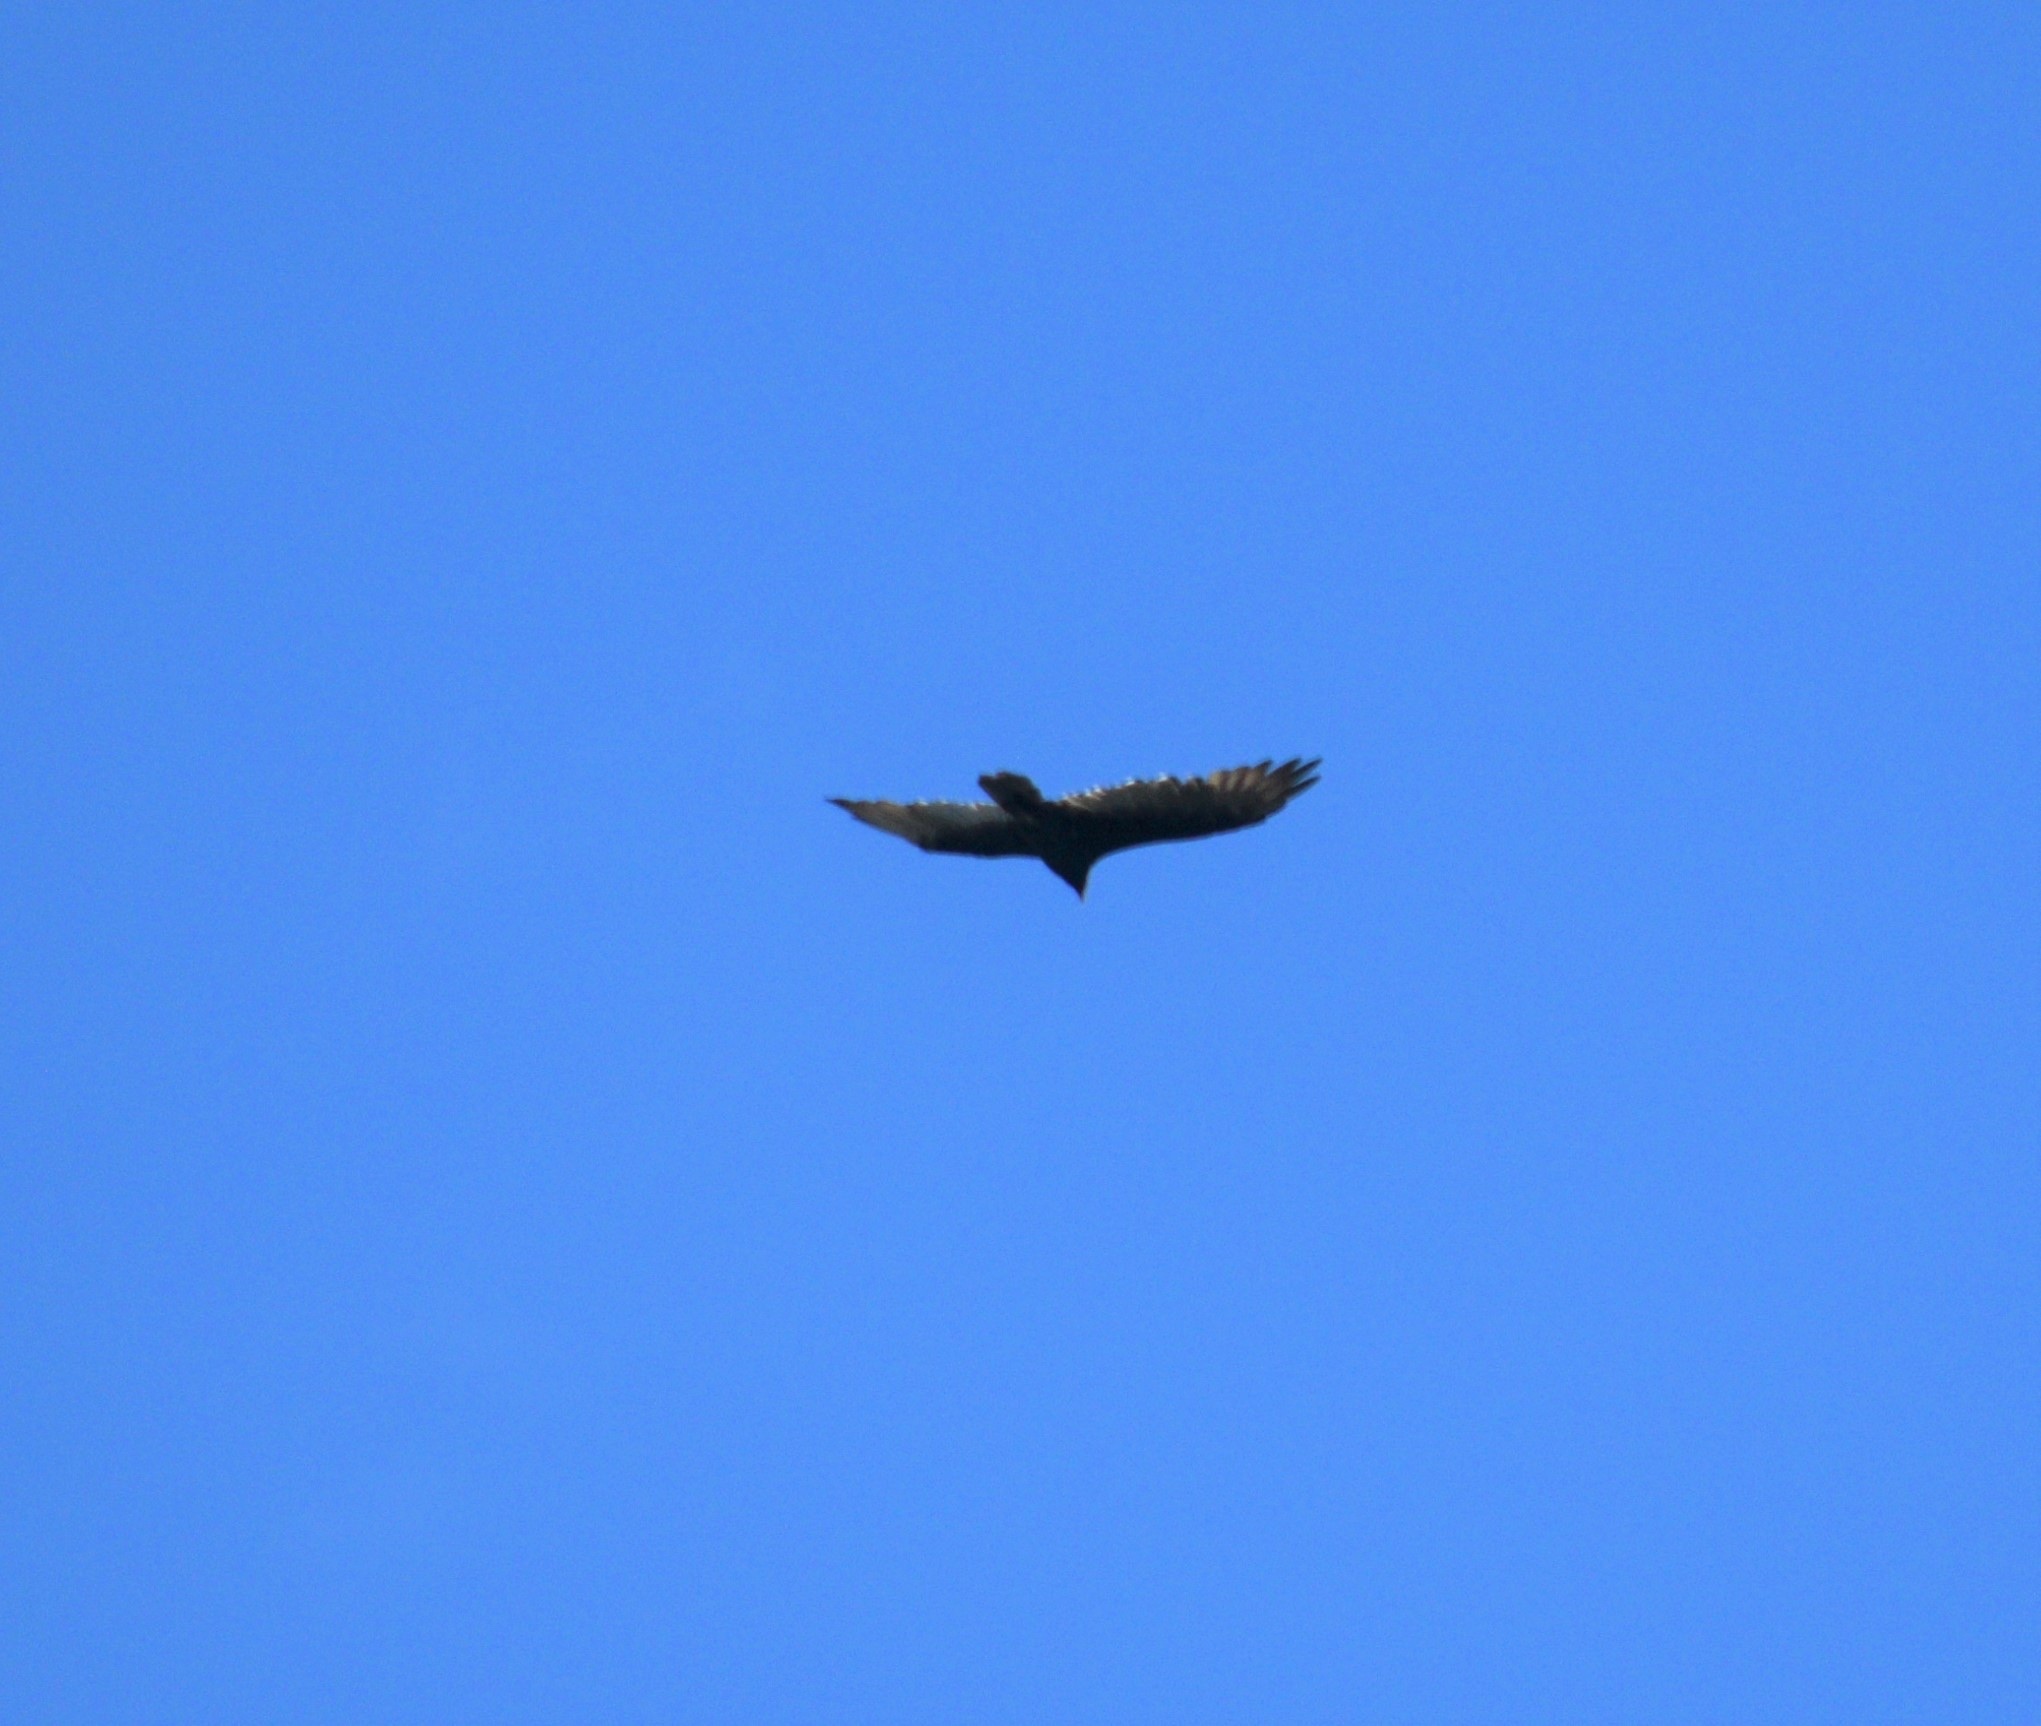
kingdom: Animalia
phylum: Chordata
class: Aves
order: Accipitriformes
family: Cathartidae
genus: Cathartes
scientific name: Cathartes aura
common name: Turkey vulture
